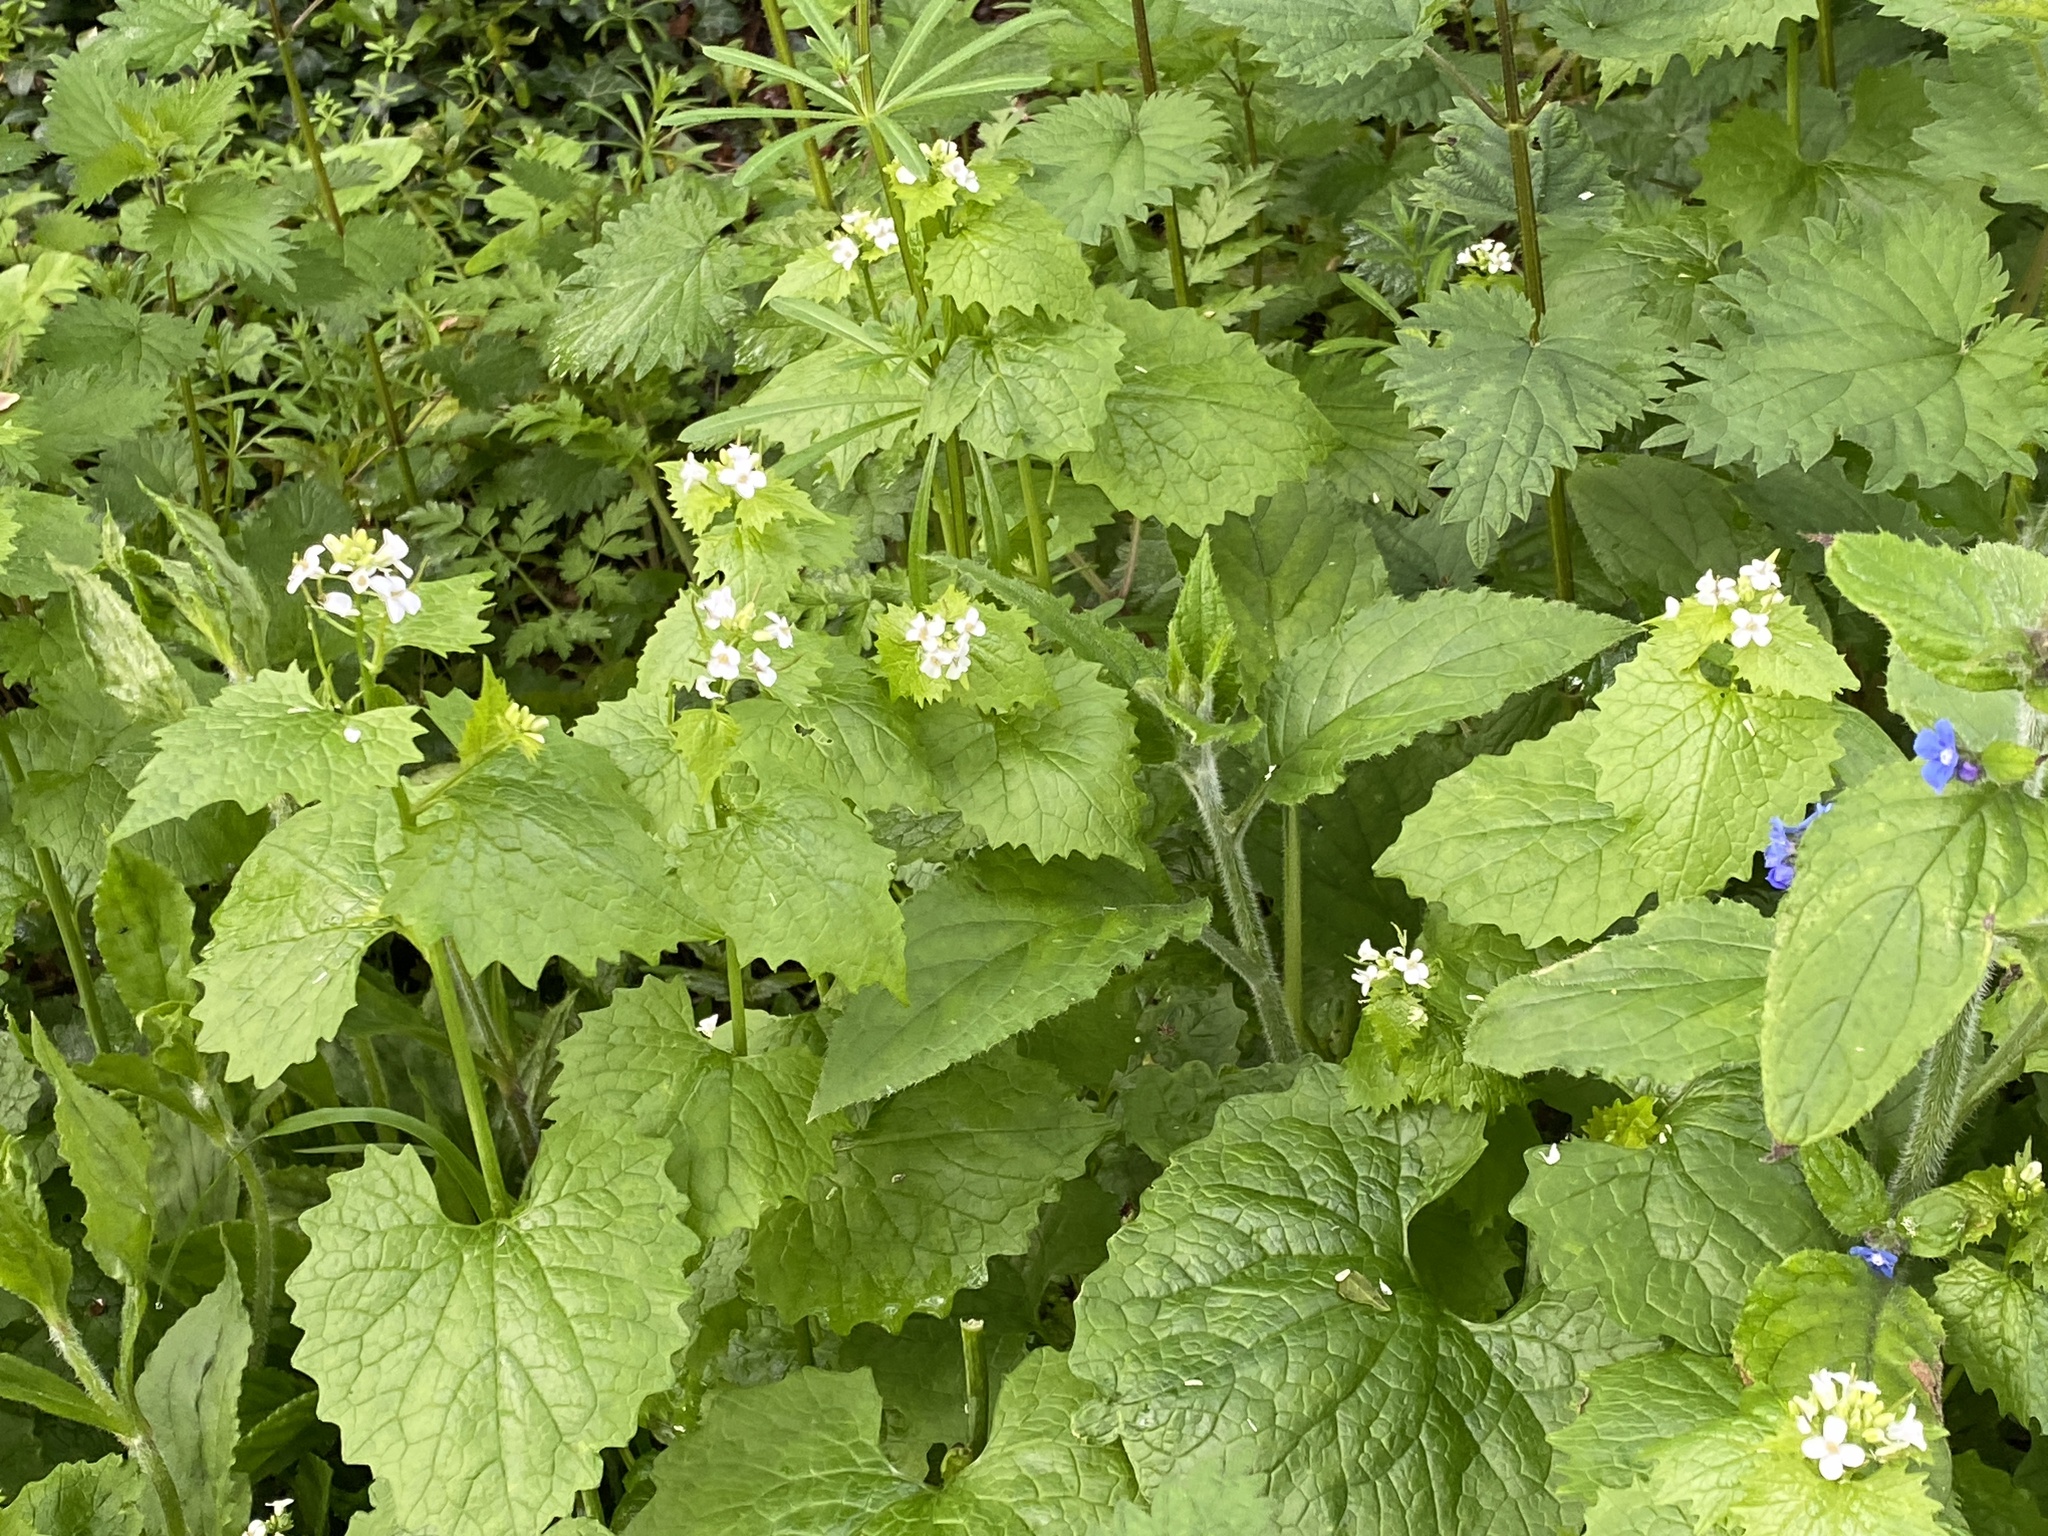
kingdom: Plantae
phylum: Tracheophyta
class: Magnoliopsida
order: Brassicales
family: Brassicaceae
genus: Alliaria
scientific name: Alliaria petiolata
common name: Garlic mustard
